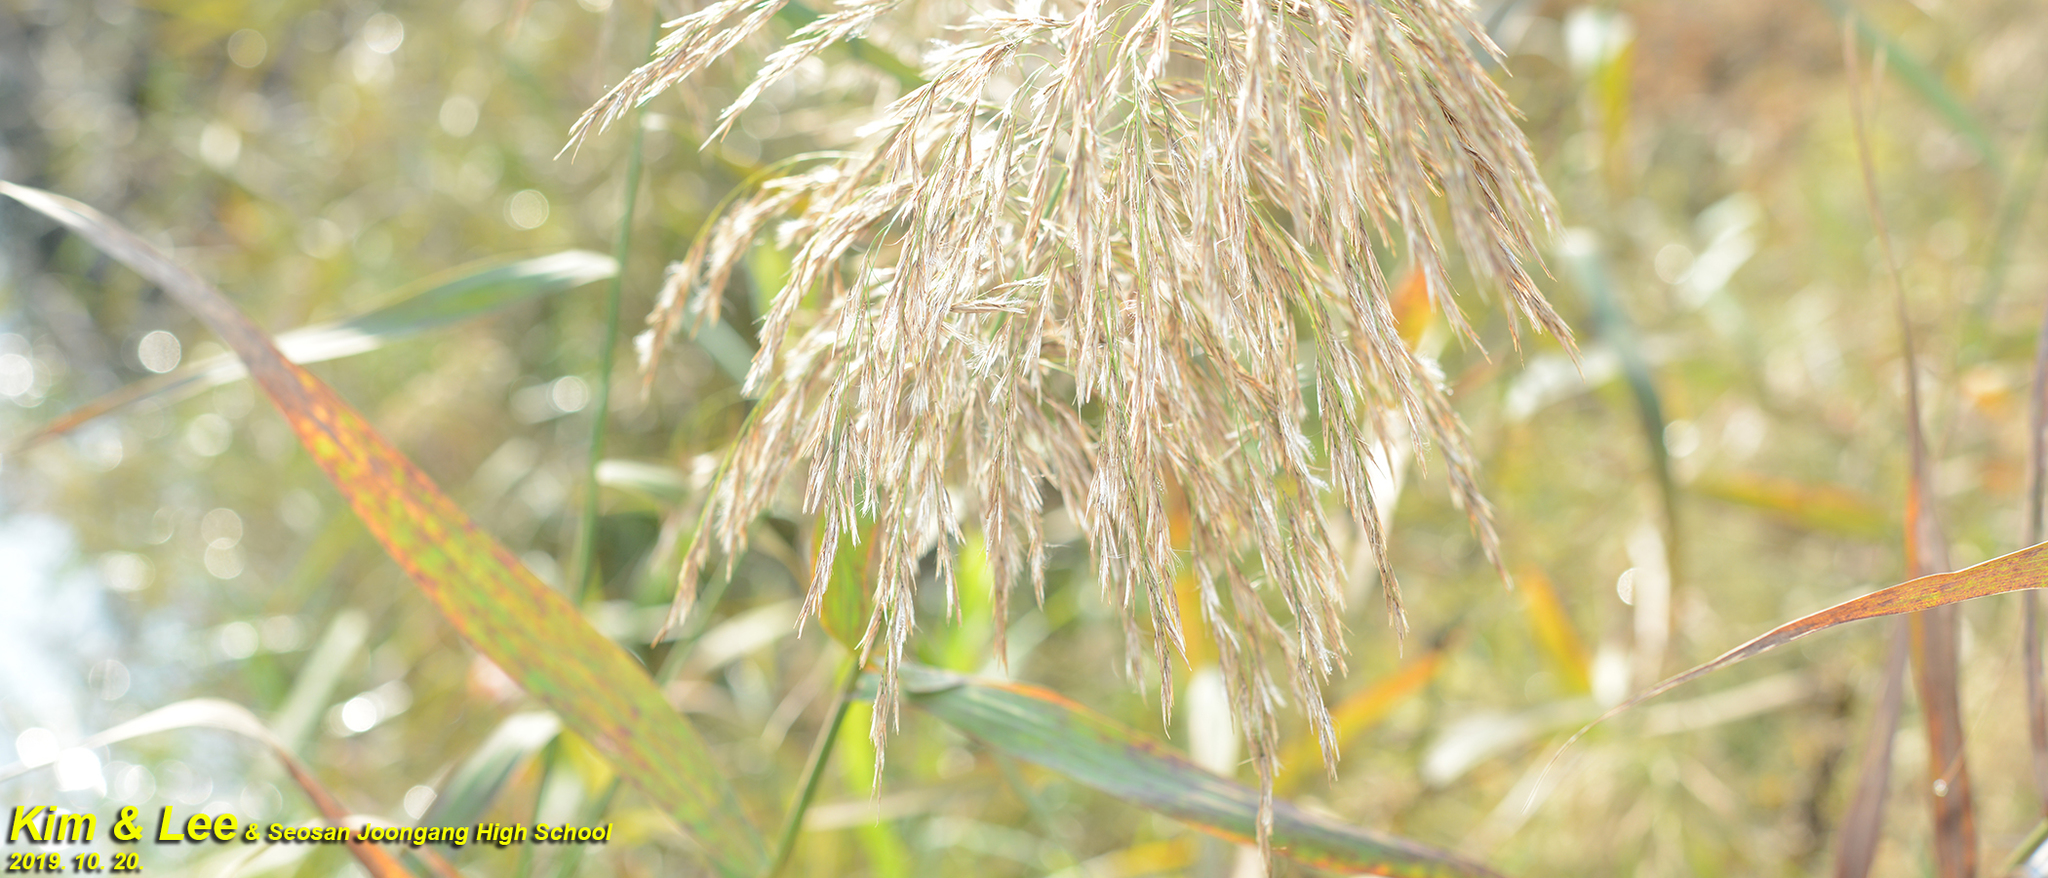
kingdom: Plantae
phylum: Tracheophyta
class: Liliopsida
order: Poales
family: Poaceae
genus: Phragmites
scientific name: Phragmites australis
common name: Common reed
